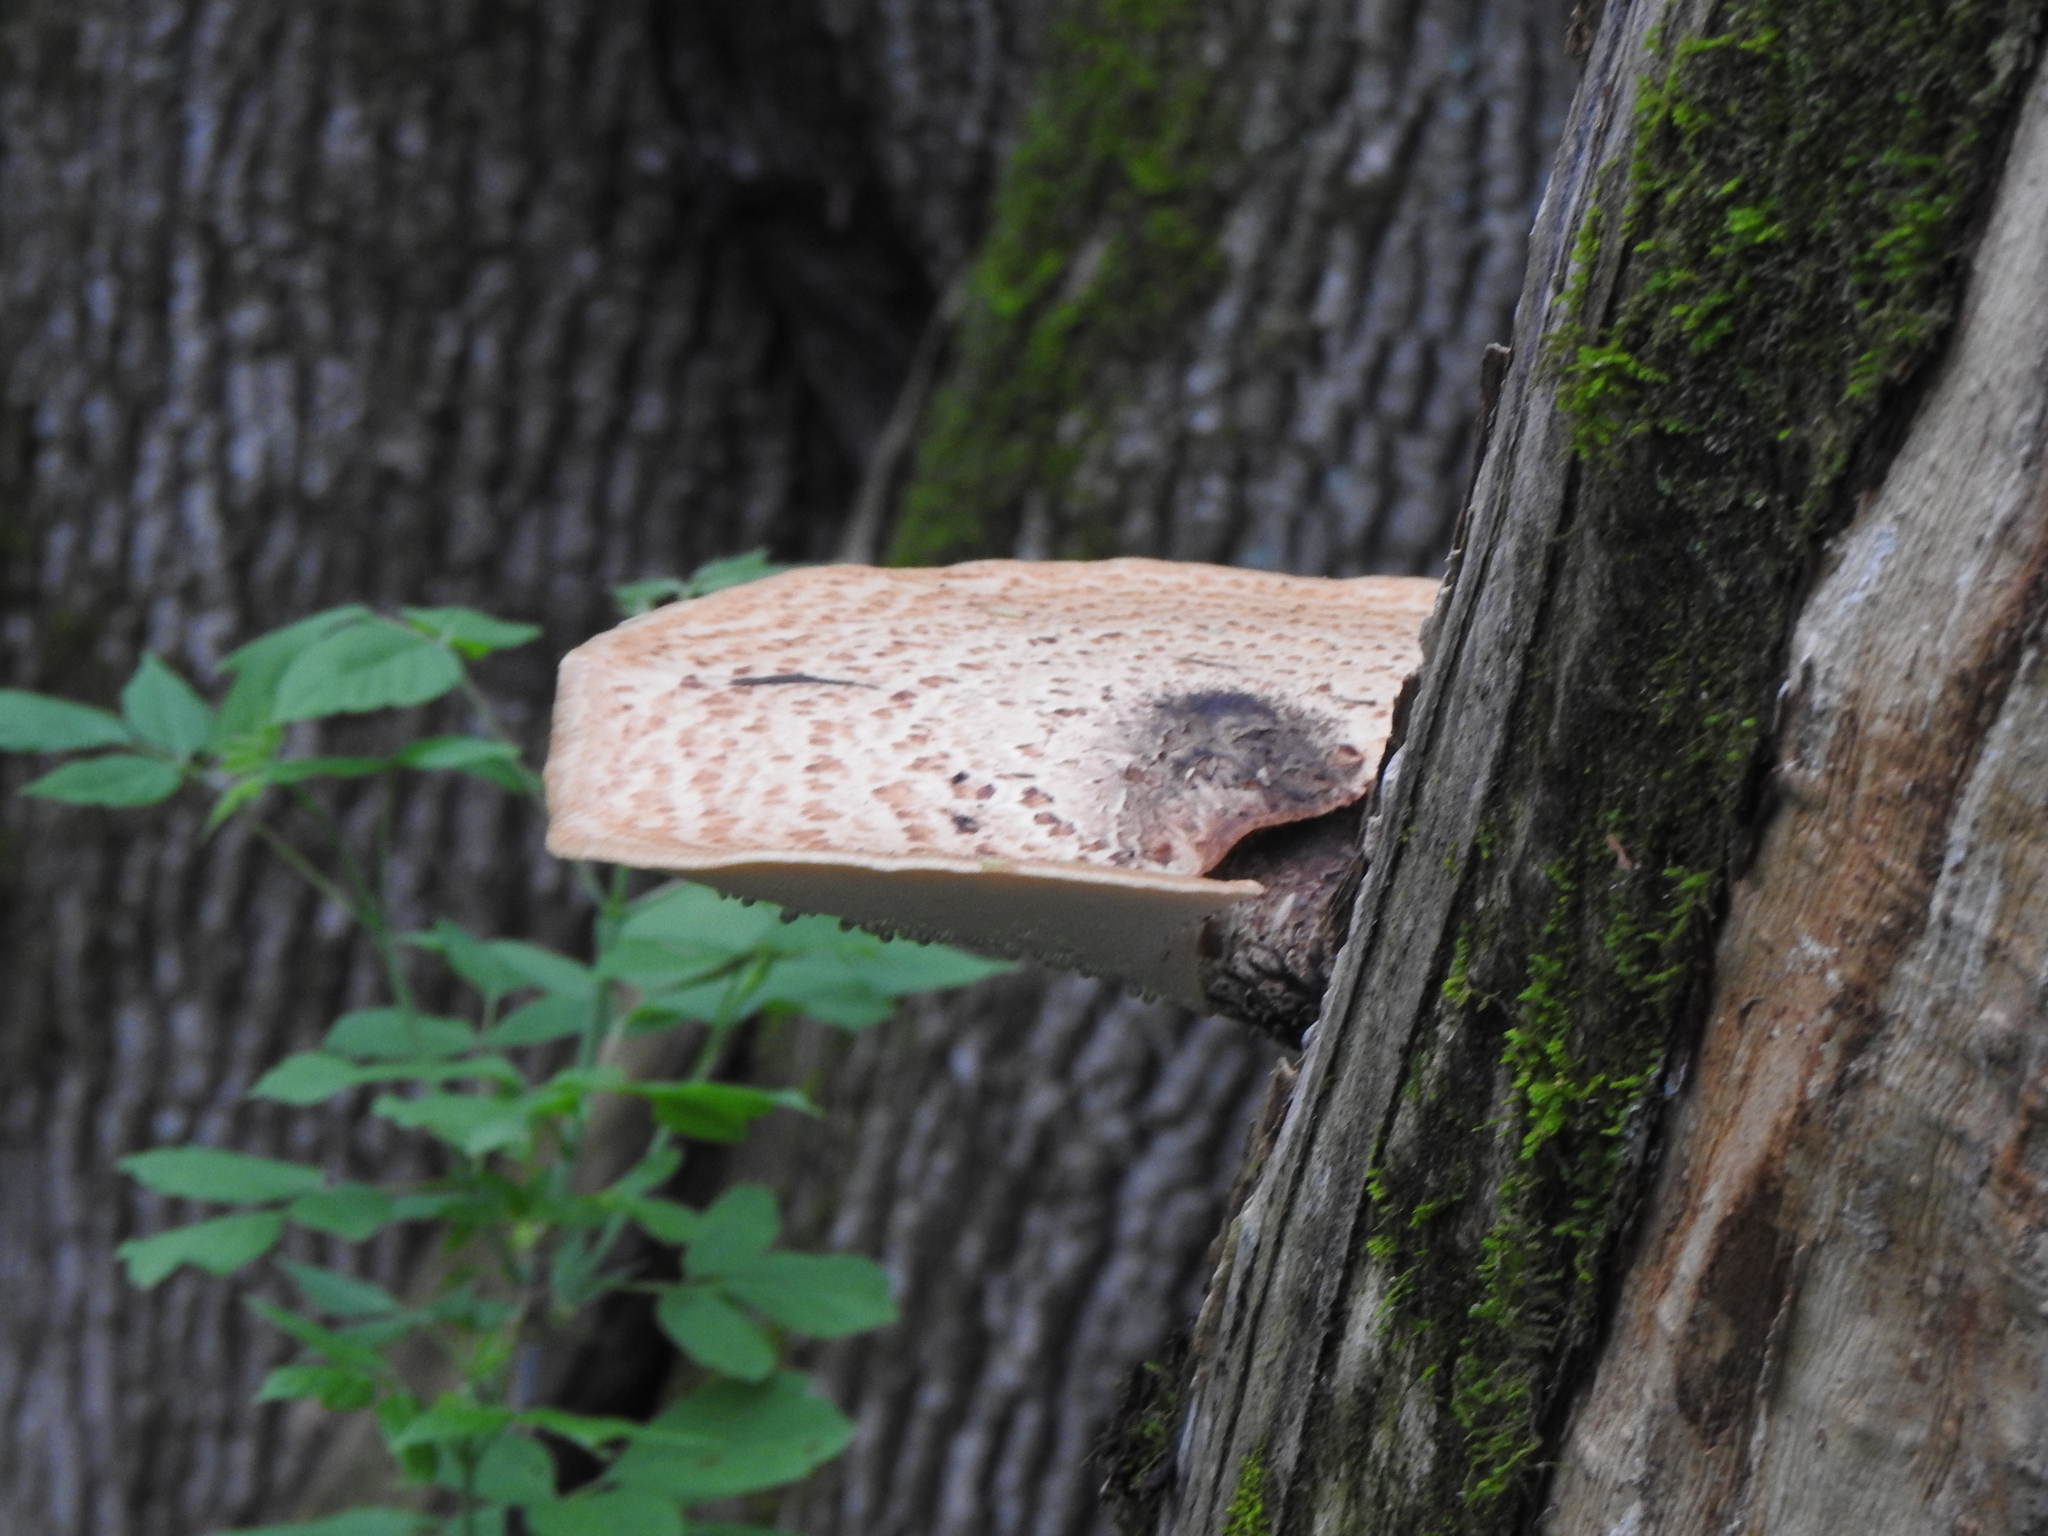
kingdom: Fungi
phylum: Basidiomycota
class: Agaricomycetes
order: Polyporales
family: Polyporaceae
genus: Cerioporus
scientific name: Cerioporus squamosus
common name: Dryad's saddle
